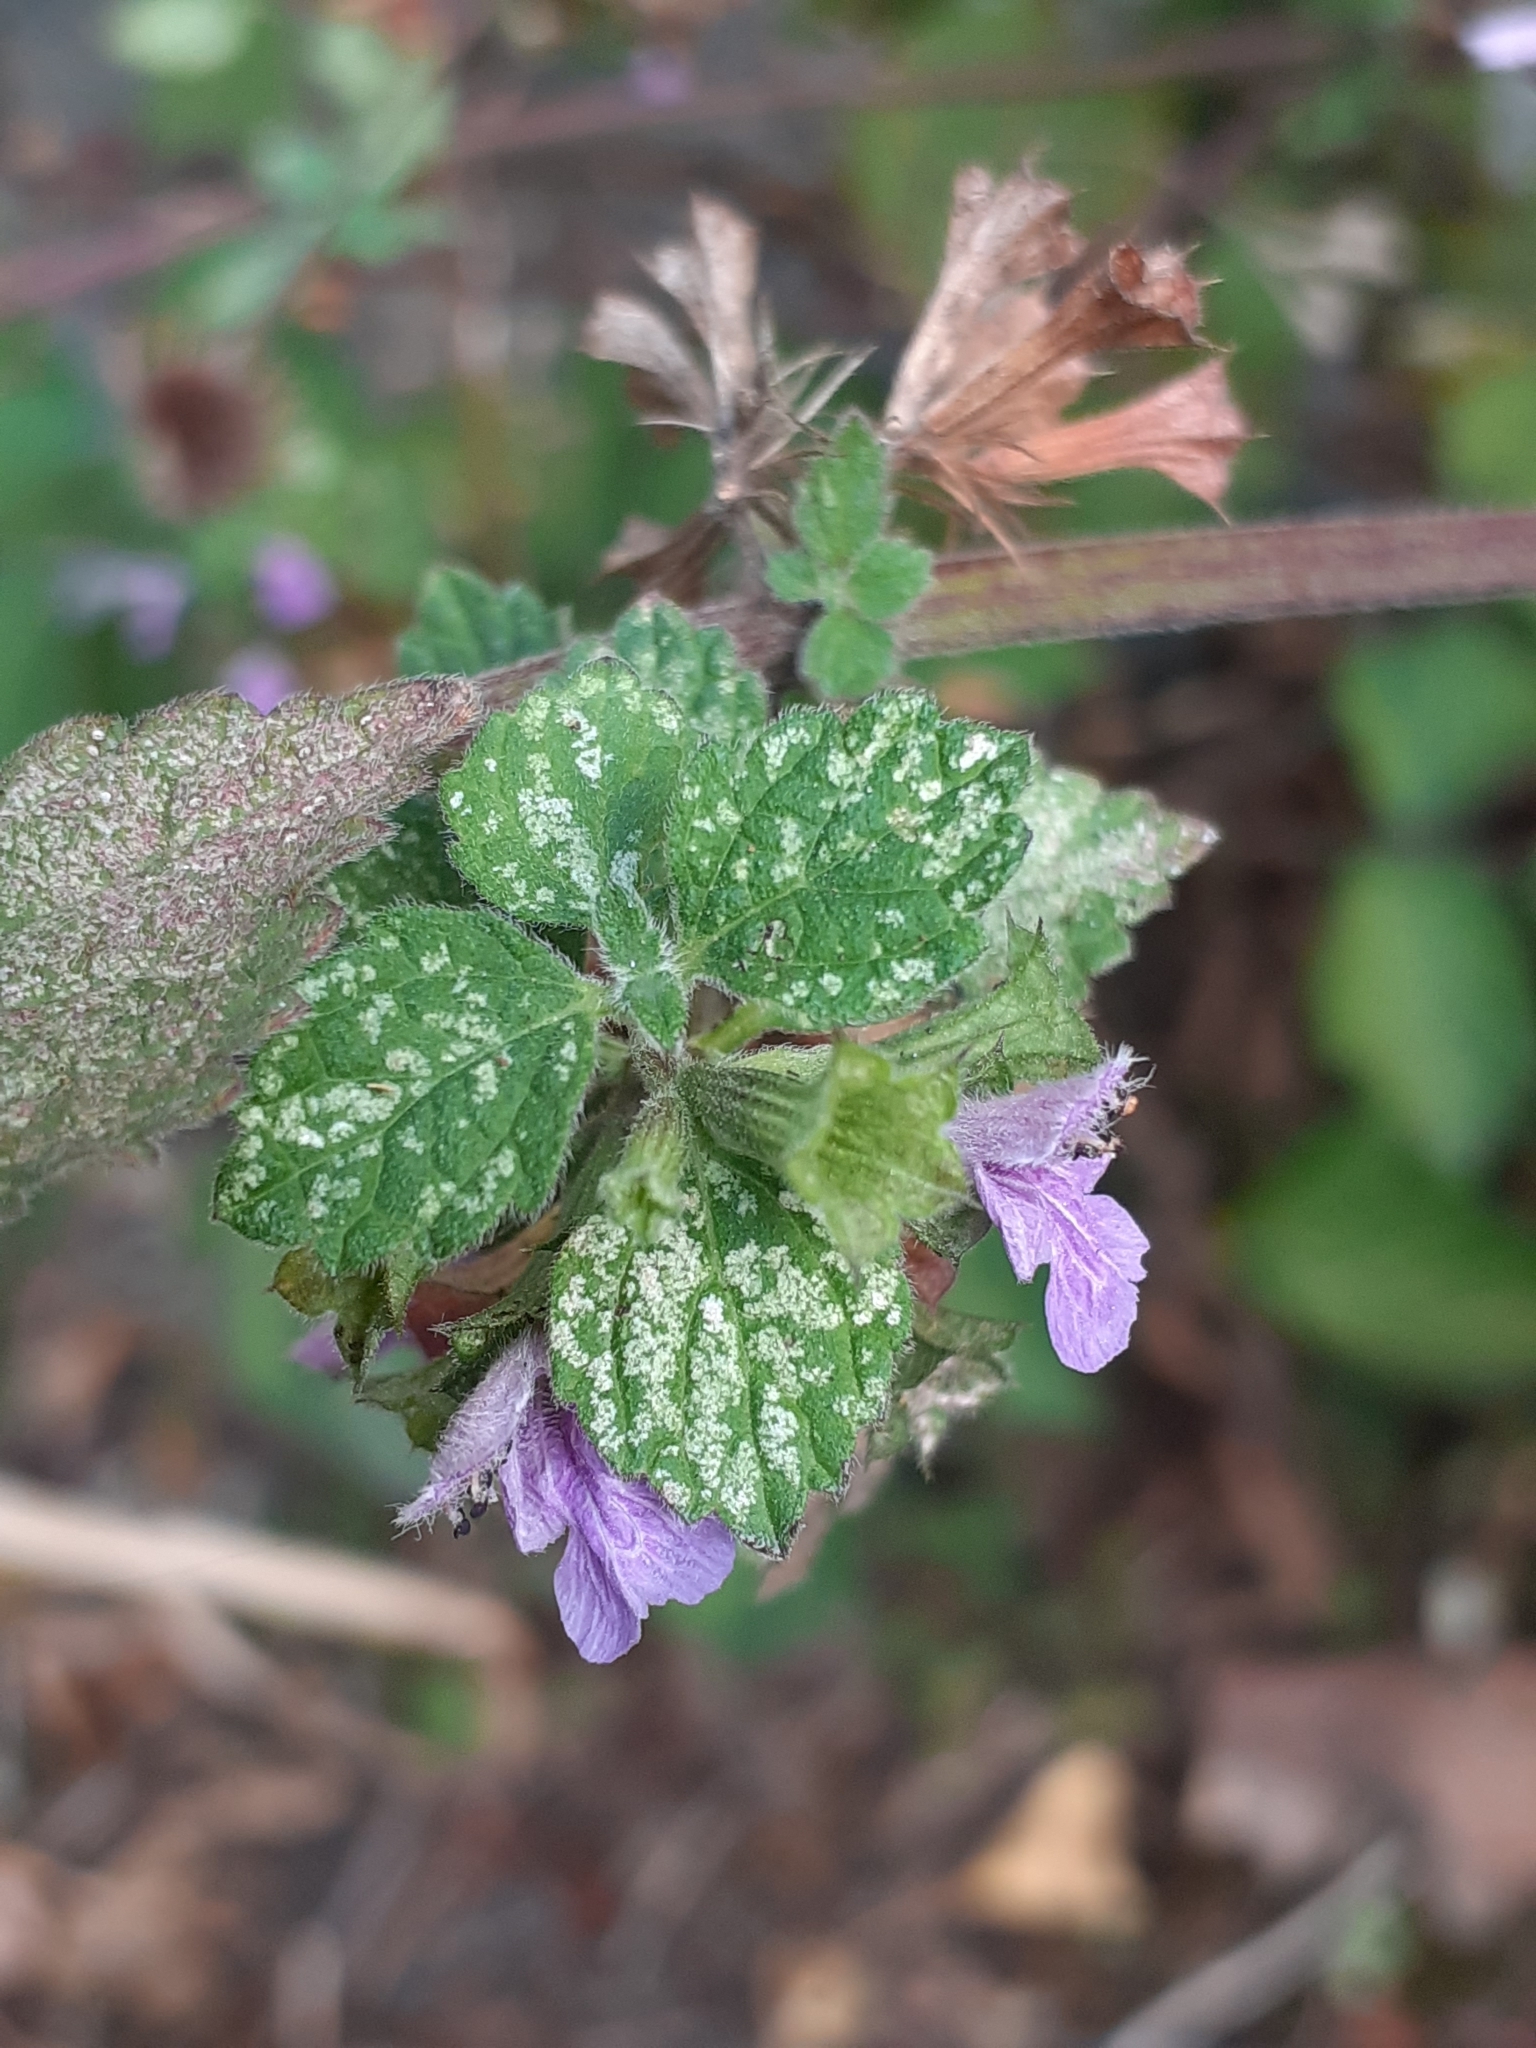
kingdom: Plantae
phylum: Tracheophyta
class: Magnoliopsida
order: Lamiales
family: Lamiaceae
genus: Ballota
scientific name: Ballota nigra
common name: Black horehound
